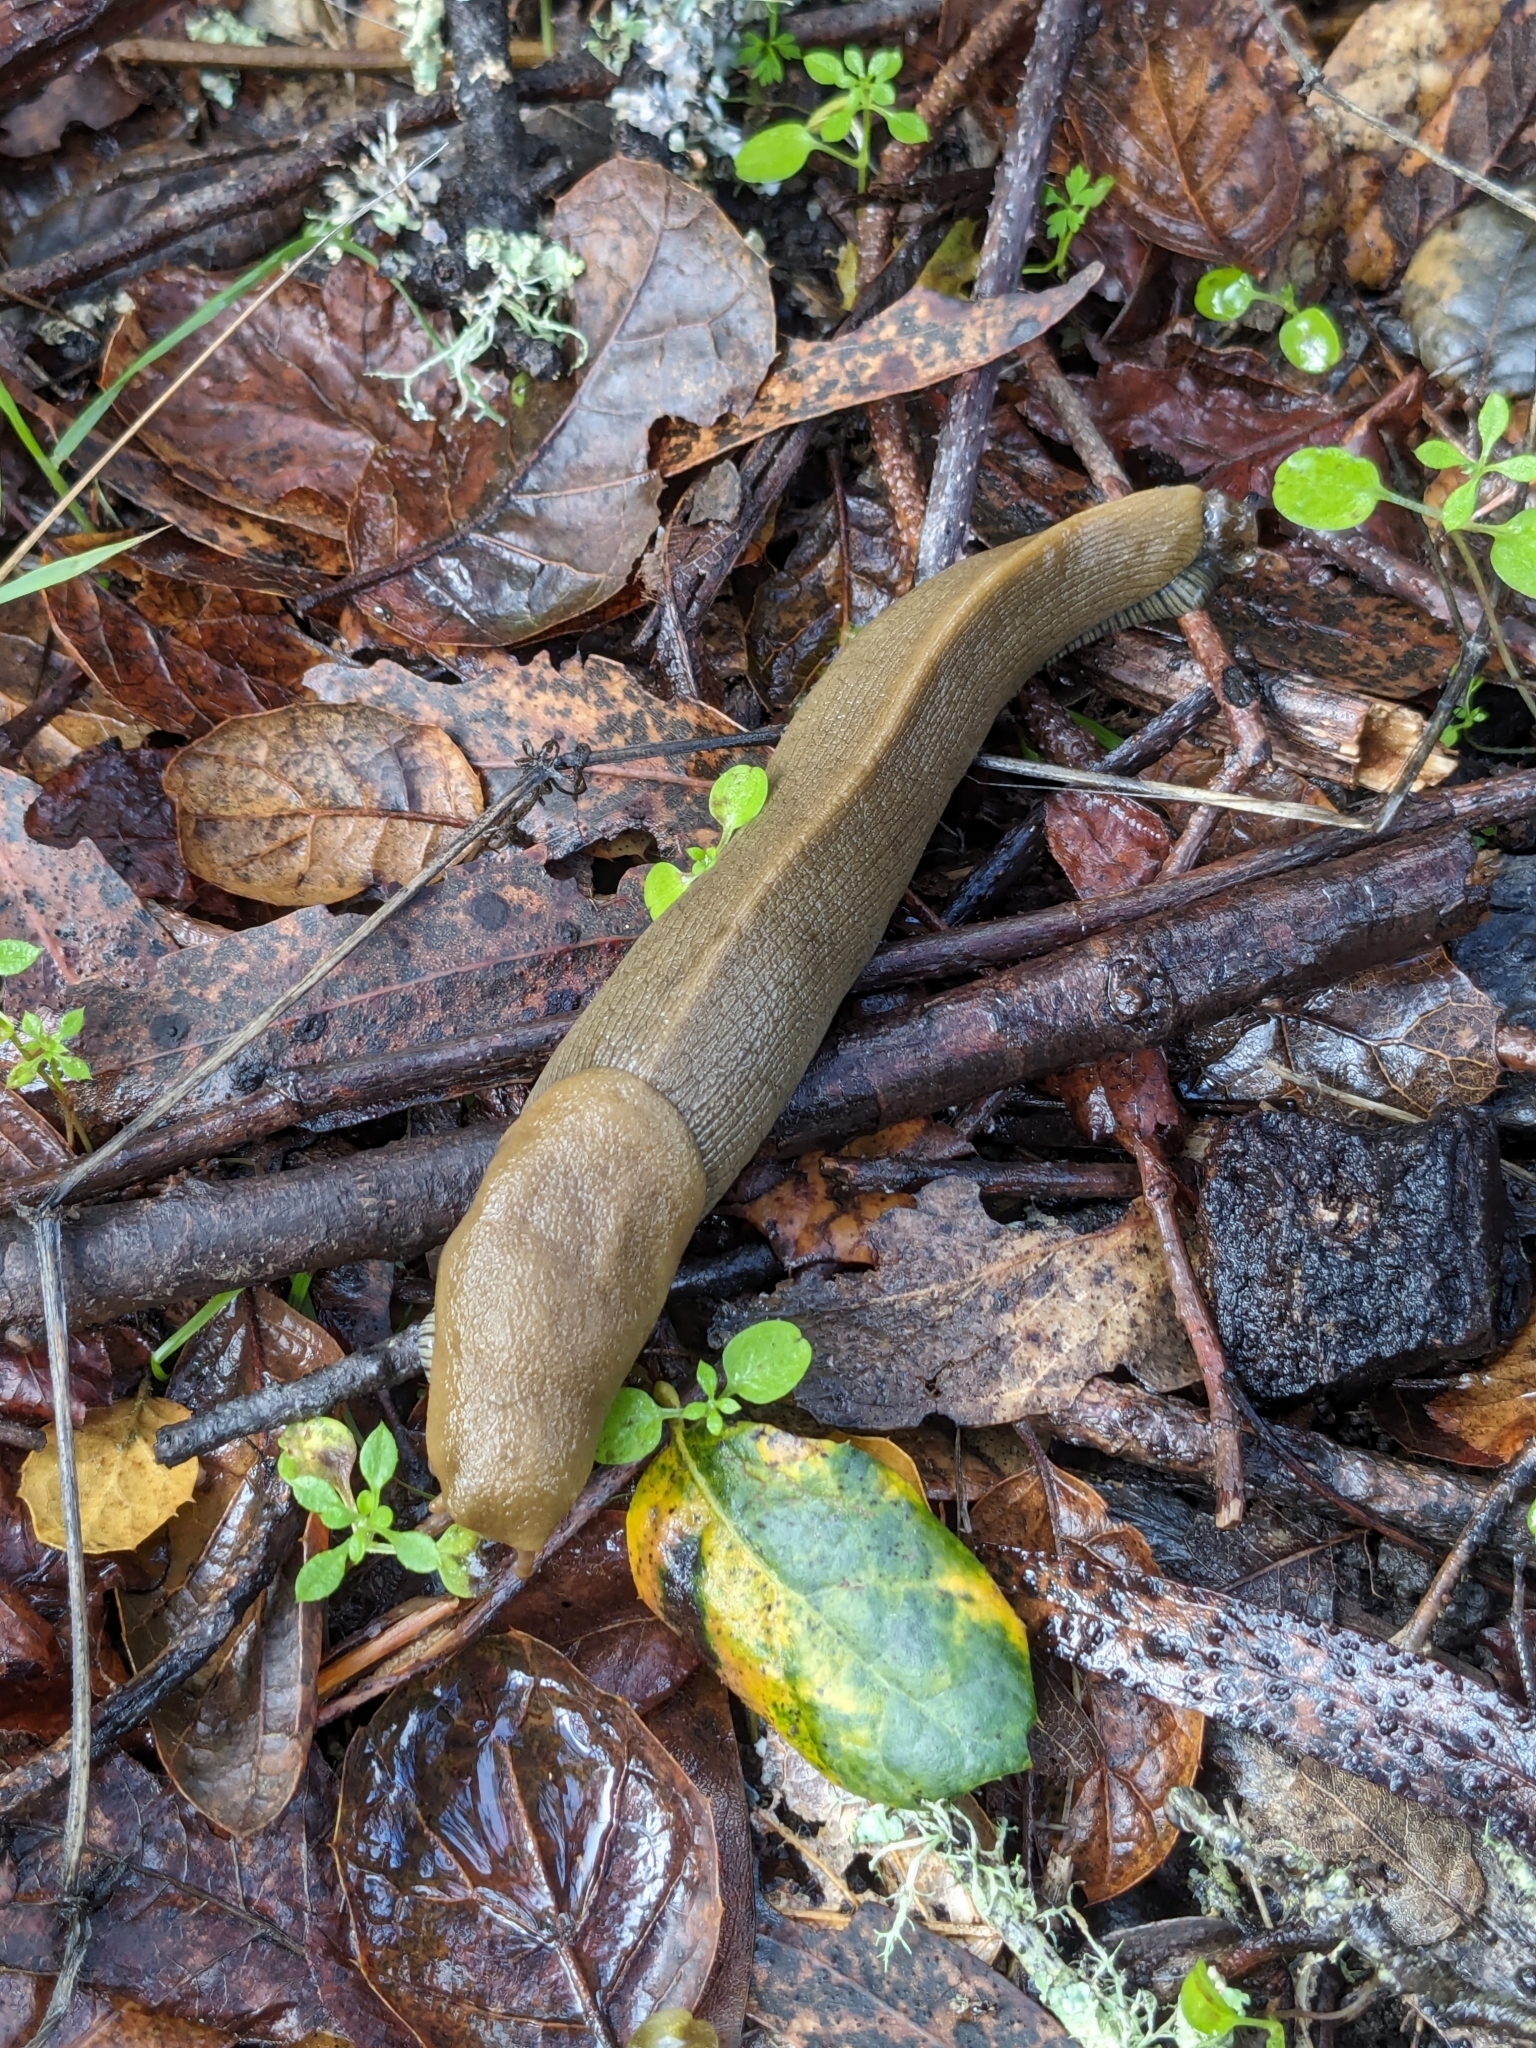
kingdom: Animalia
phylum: Mollusca
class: Gastropoda
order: Stylommatophora
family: Ariolimacidae
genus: Ariolimax
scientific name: Ariolimax buttoni
